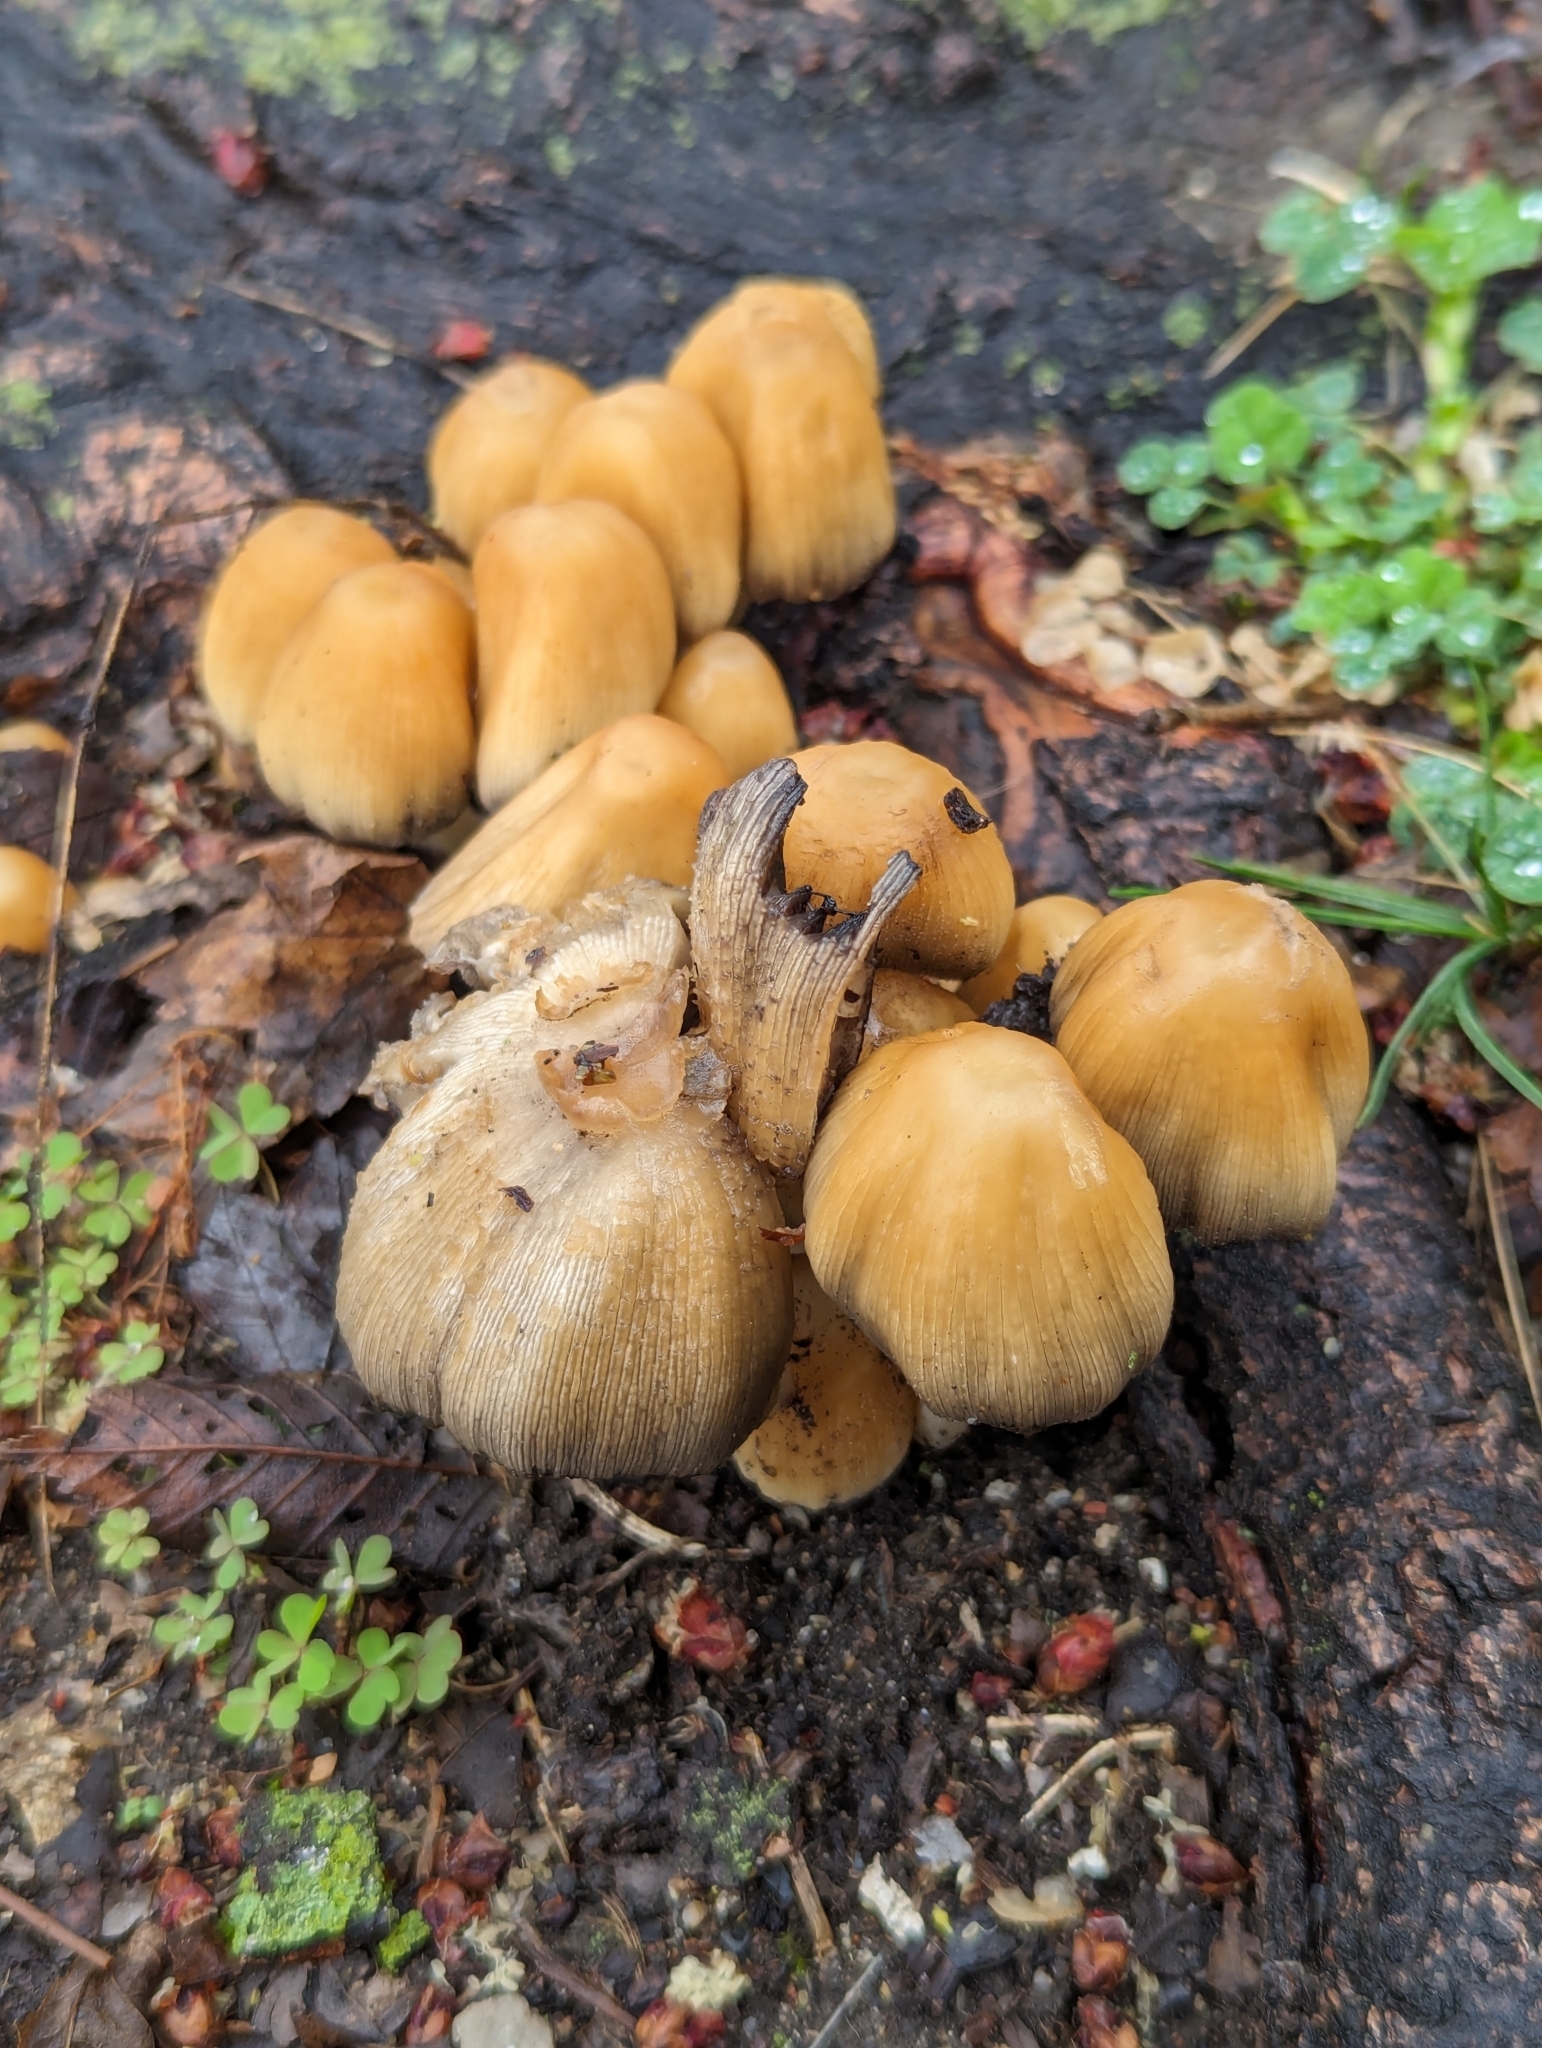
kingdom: Fungi
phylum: Basidiomycota
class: Agaricomycetes
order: Agaricales
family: Psathyrellaceae
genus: Coprinellus
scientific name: Coprinellus micaceus
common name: Glistening ink-cap
